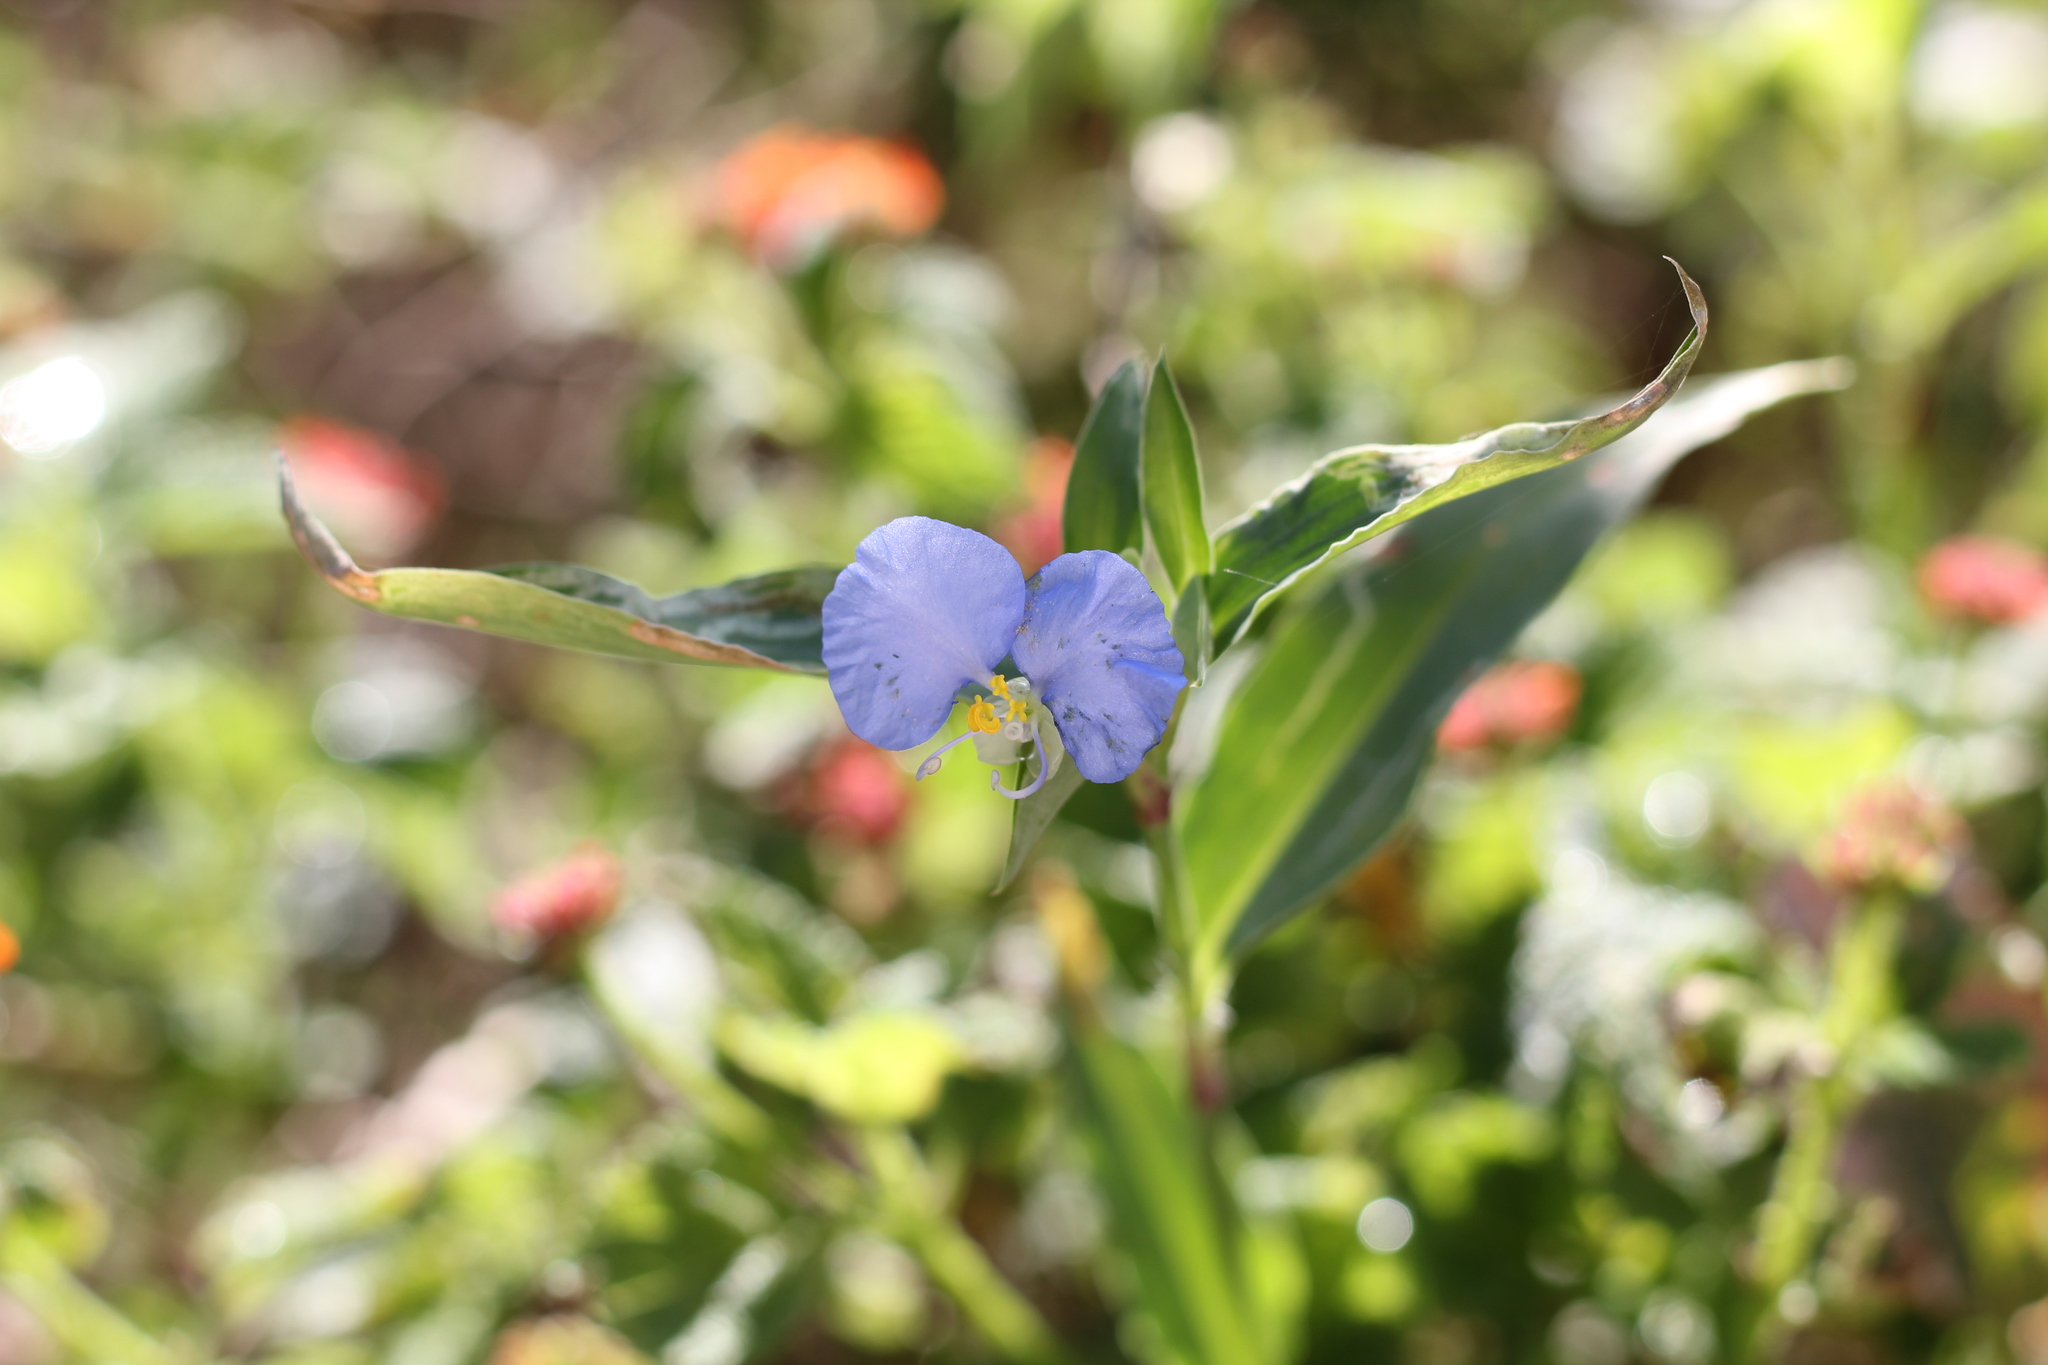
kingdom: Plantae
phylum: Tracheophyta
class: Liliopsida
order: Commelinales
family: Commelinaceae
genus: Commelina
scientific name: Commelina erecta
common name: Blousel blommetjie
